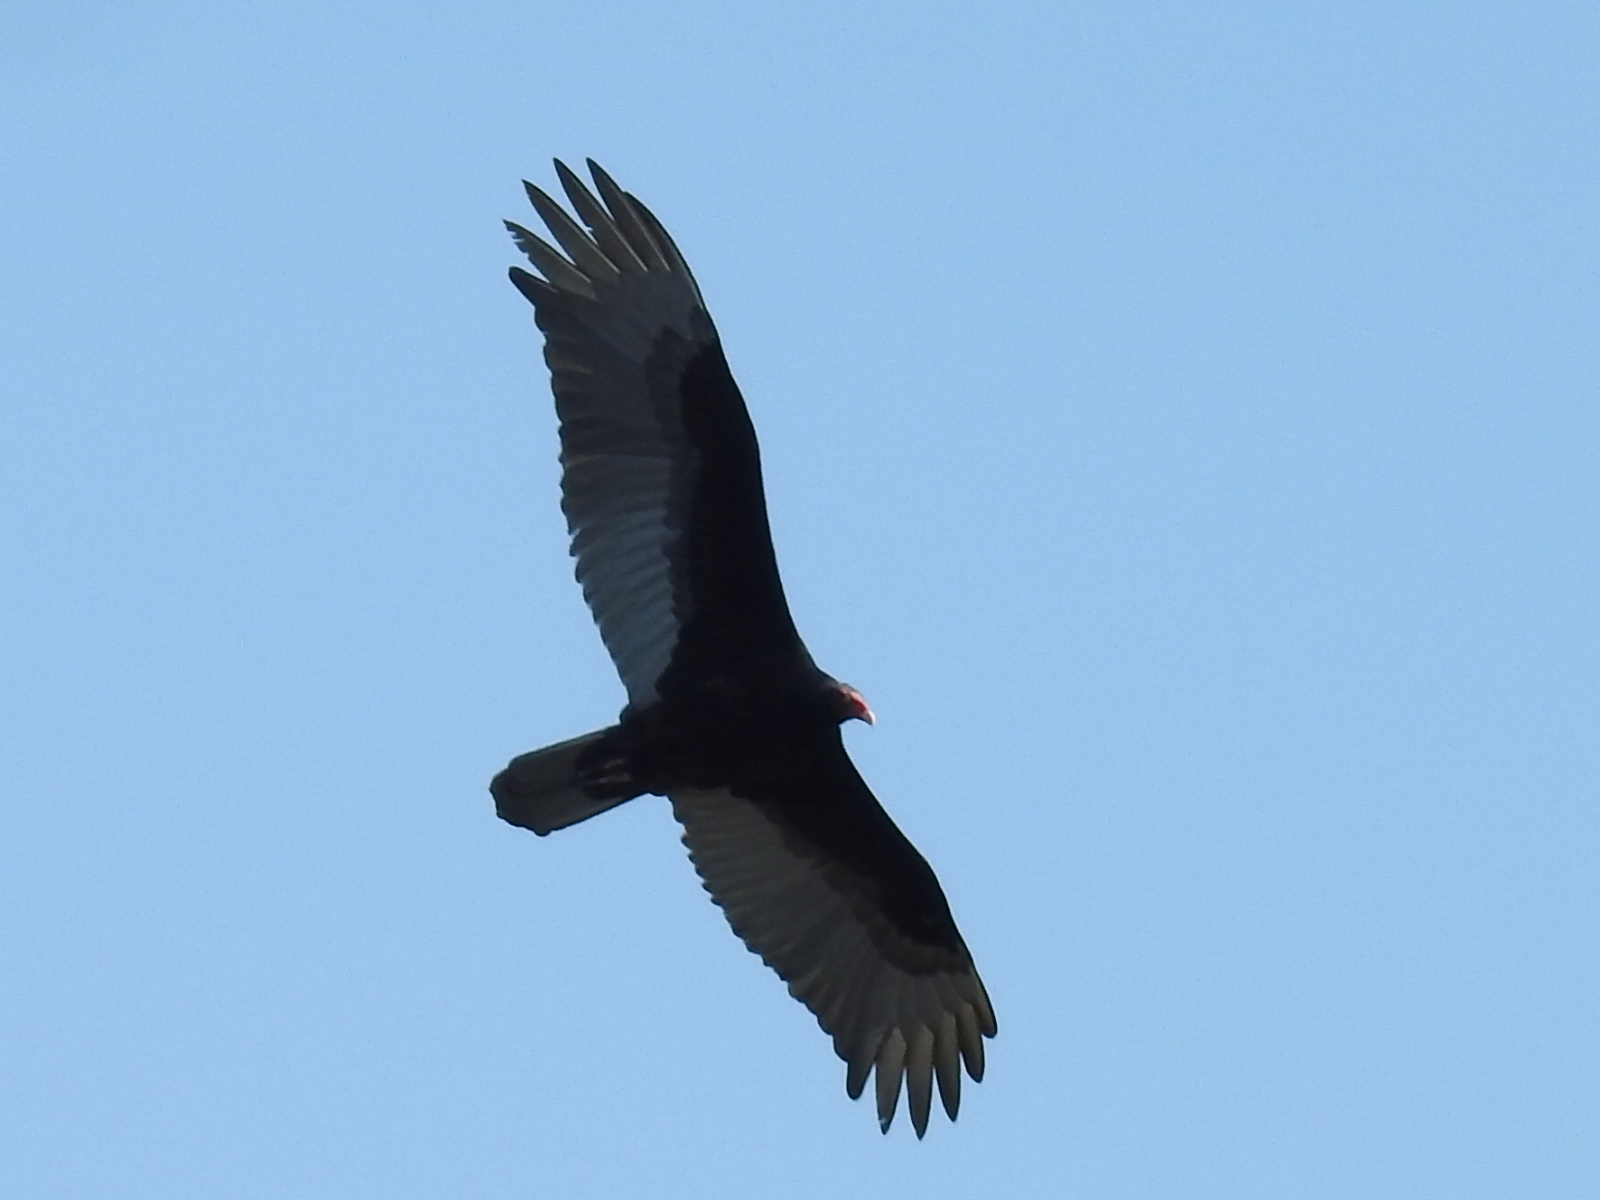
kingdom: Animalia
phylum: Chordata
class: Aves
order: Accipitriformes
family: Cathartidae
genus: Cathartes
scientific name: Cathartes aura
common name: Turkey vulture
